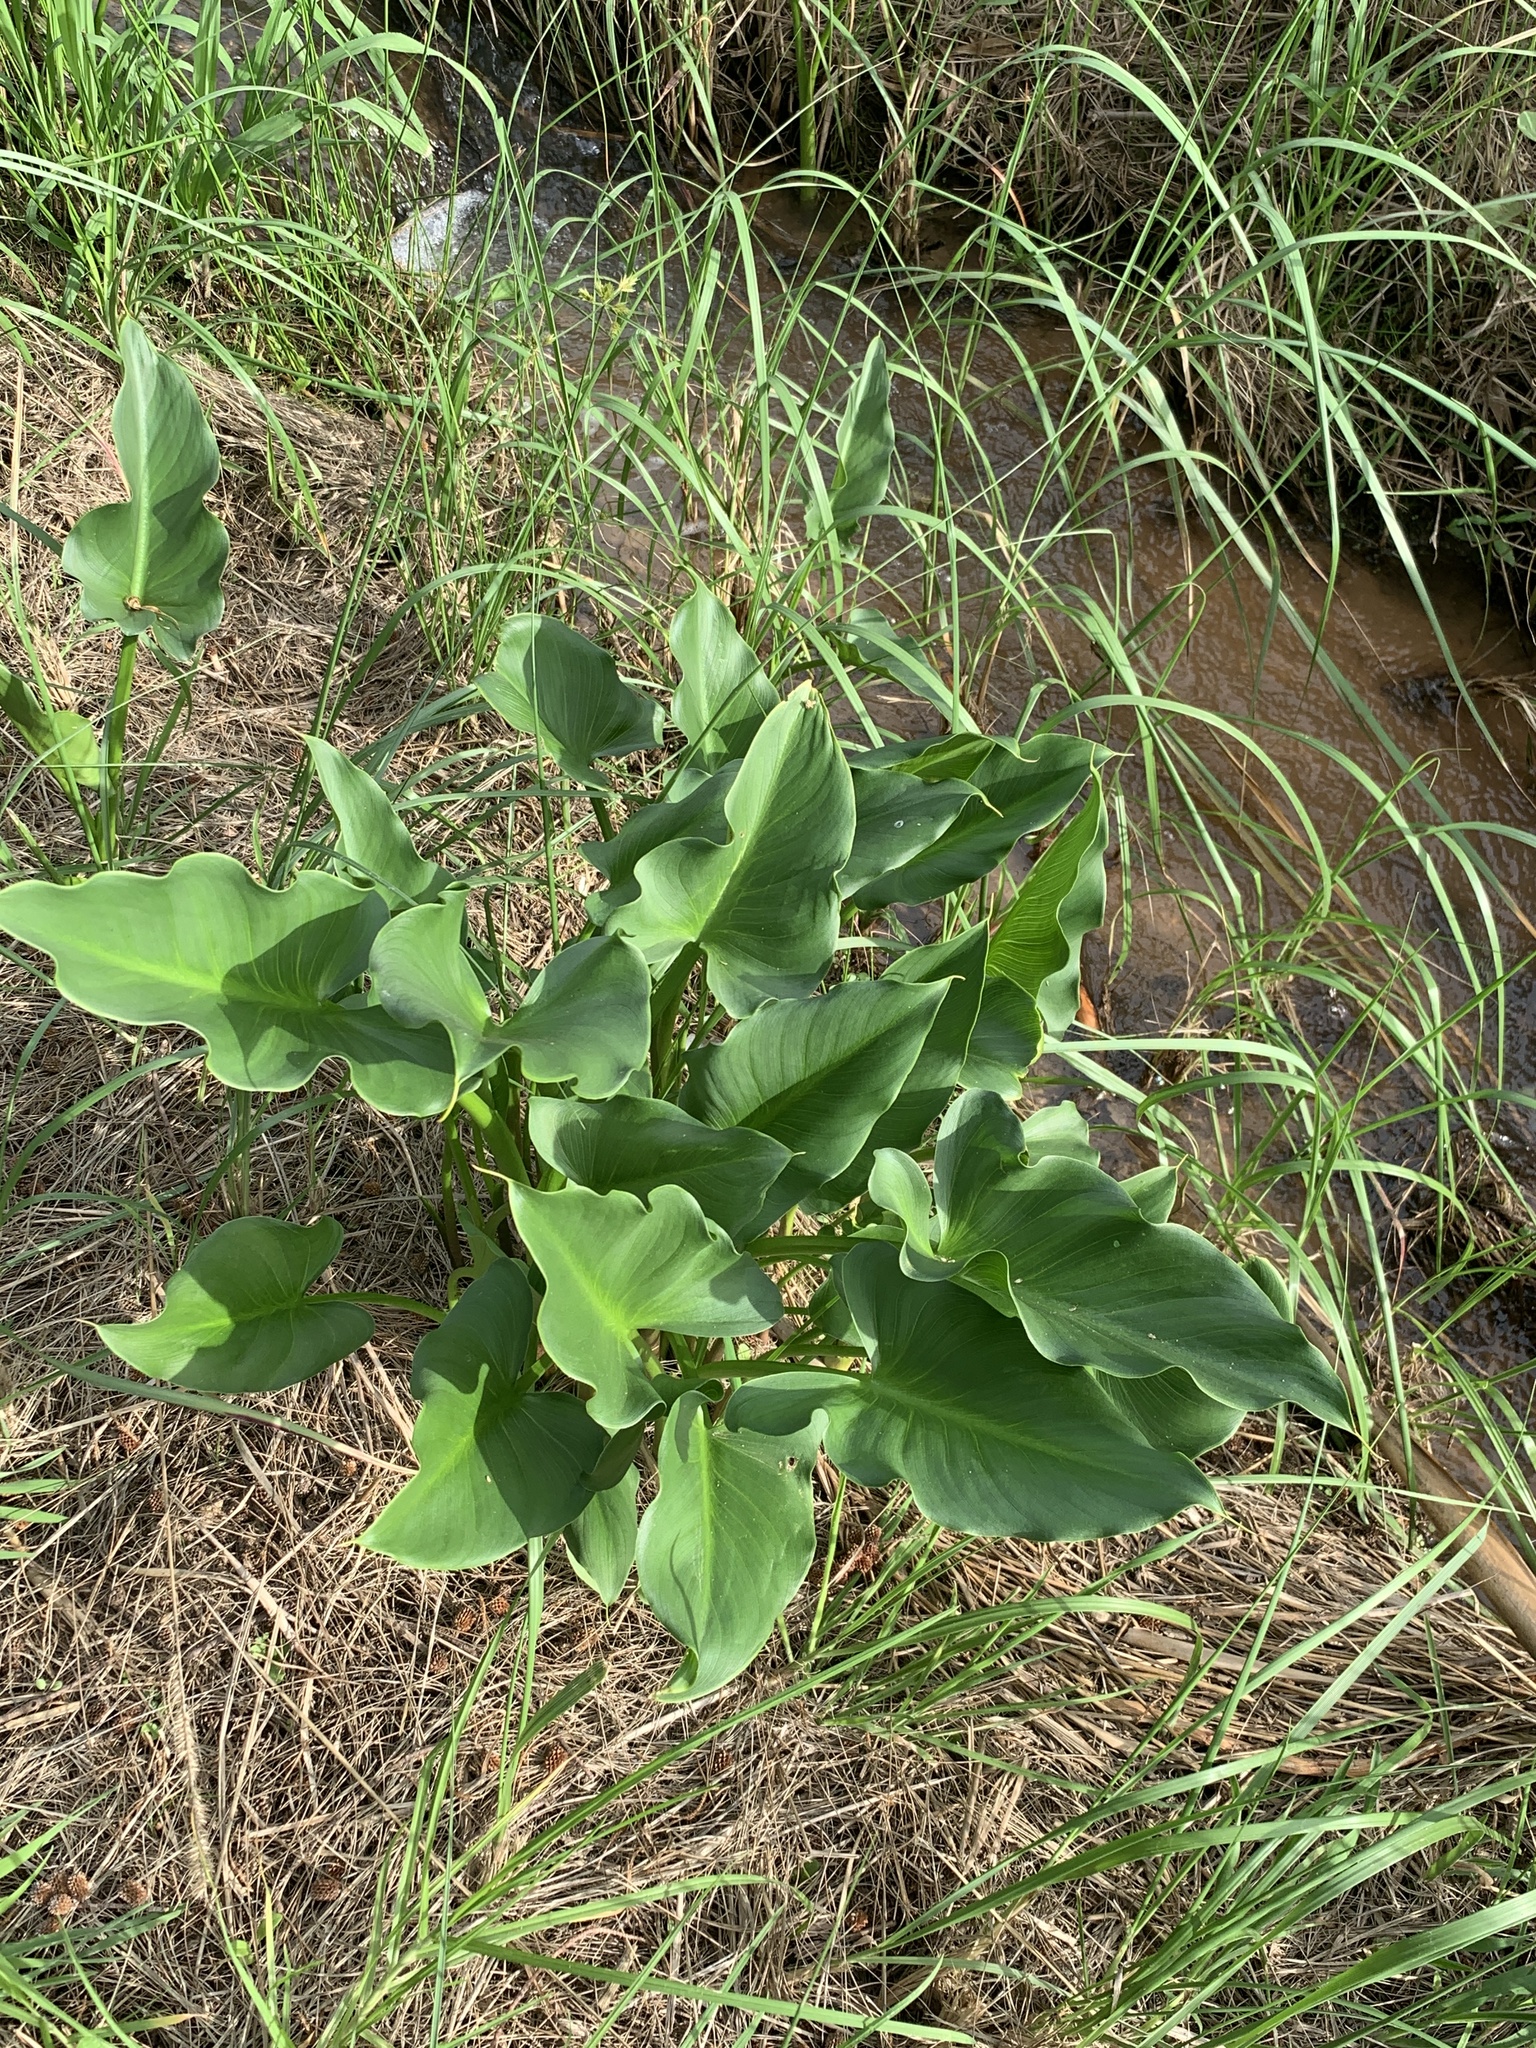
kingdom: Plantae
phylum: Tracheophyta
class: Liliopsida
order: Alismatales
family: Araceae
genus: Zantedeschia
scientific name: Zantedeschia aethiopica
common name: Altar-lily
